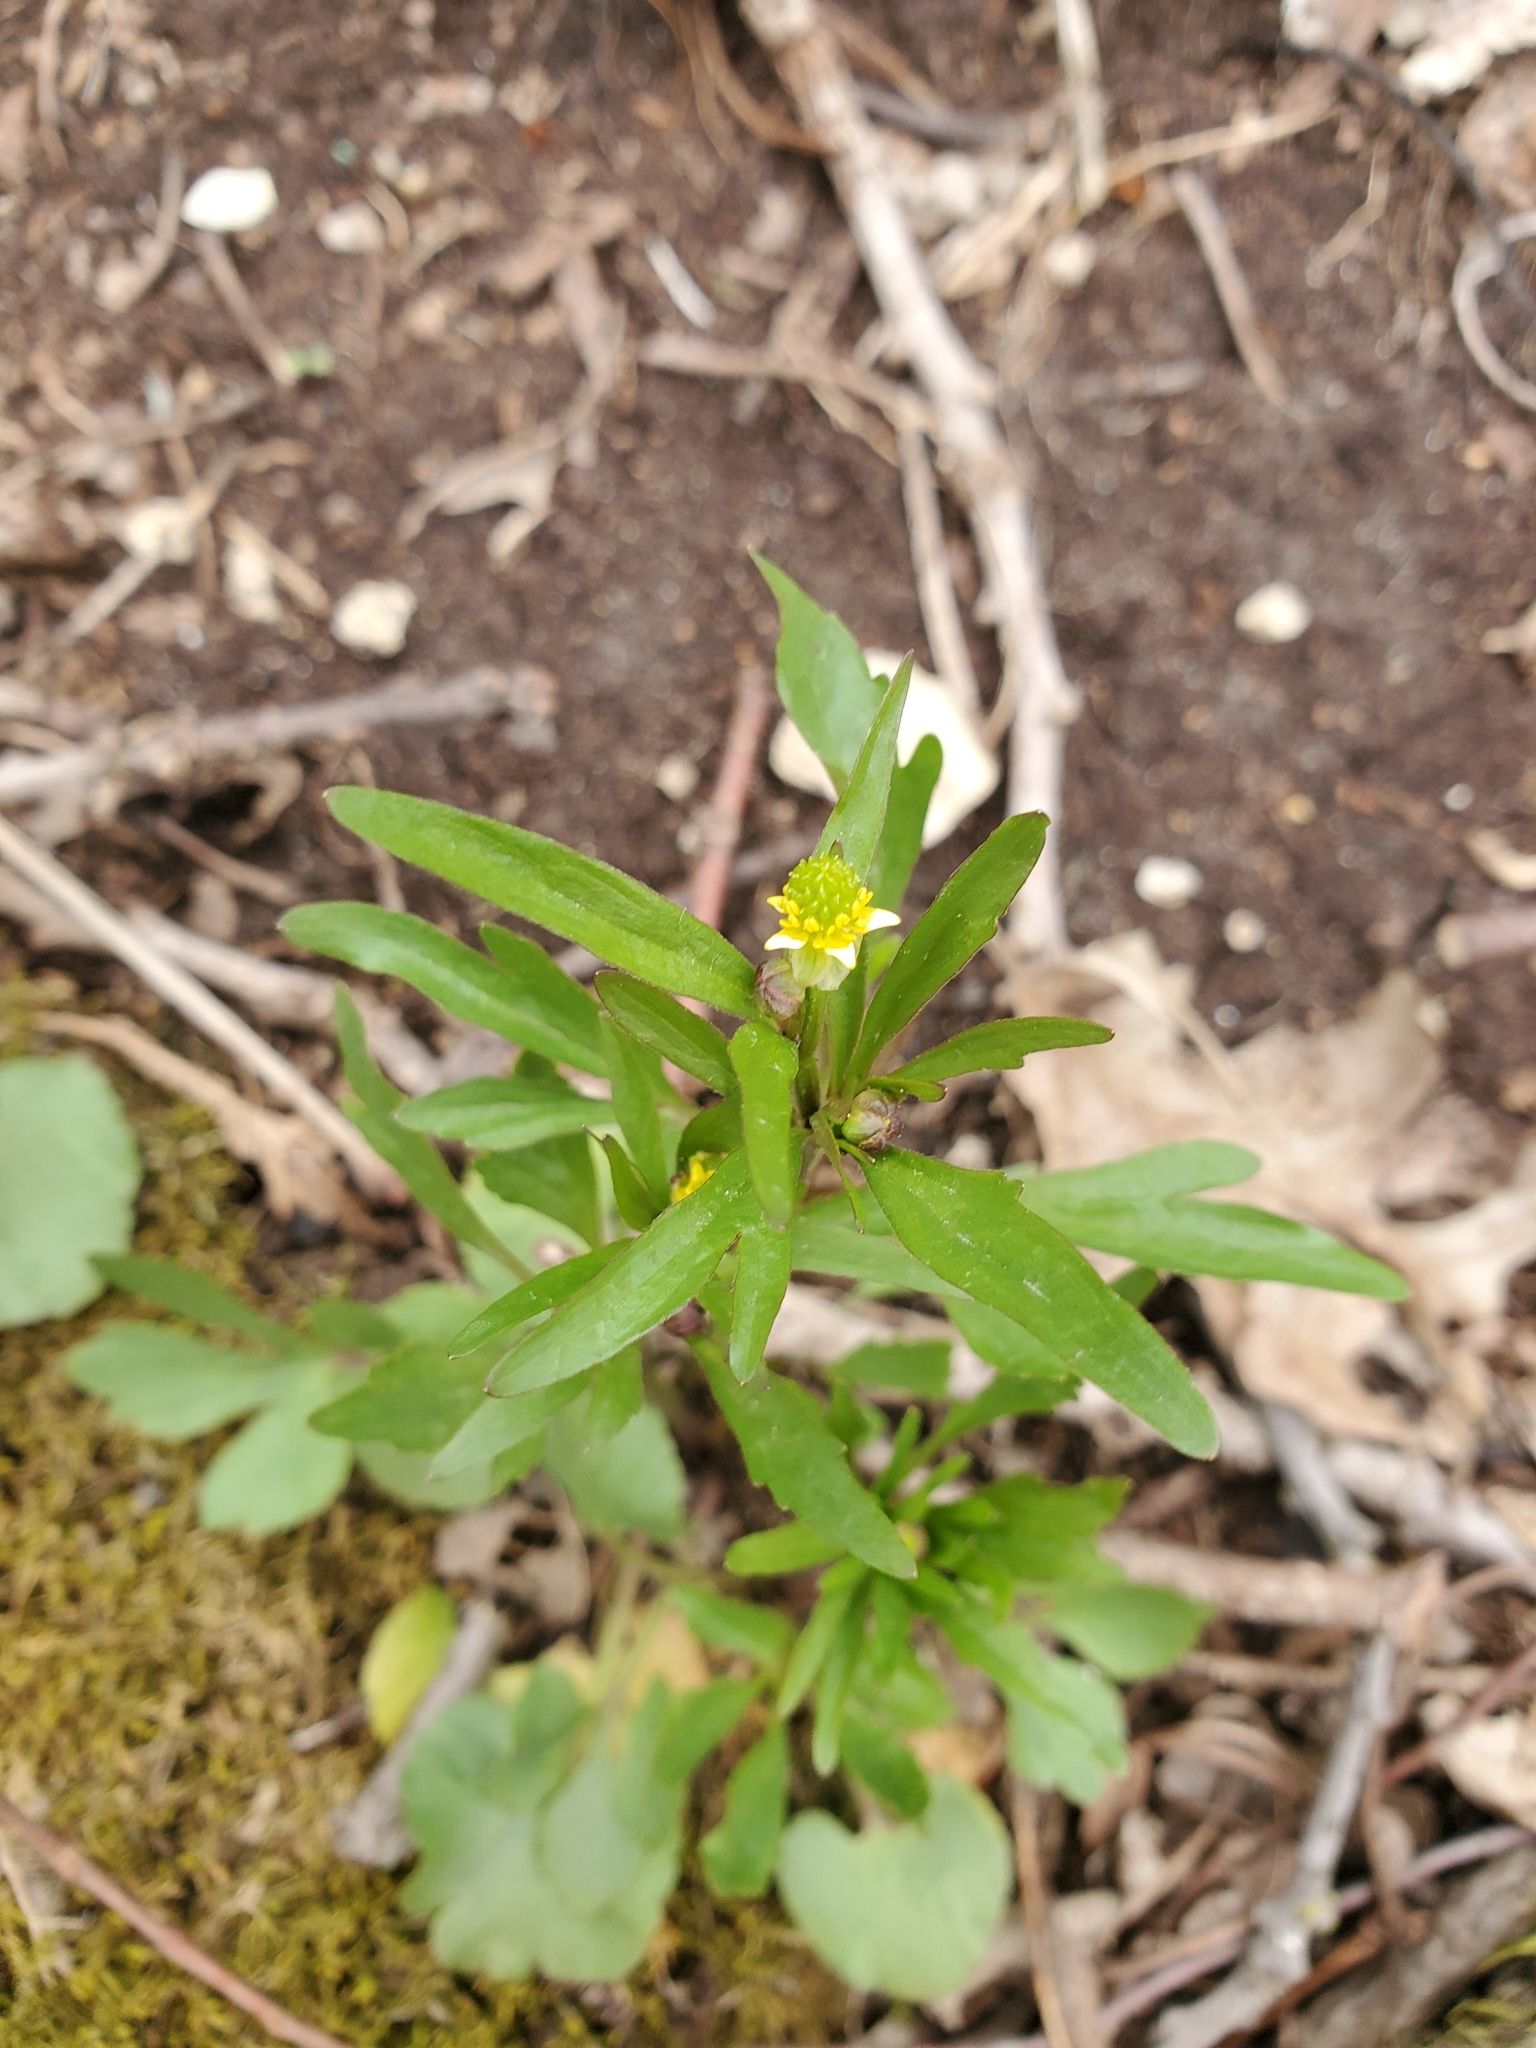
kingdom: Plantae
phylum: Tracheophyta
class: Magnoliopsida
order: Ranunculales
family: Ranunculaceae
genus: Ranunculus
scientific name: Ranunculus abortivus
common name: Early wood buttercup
